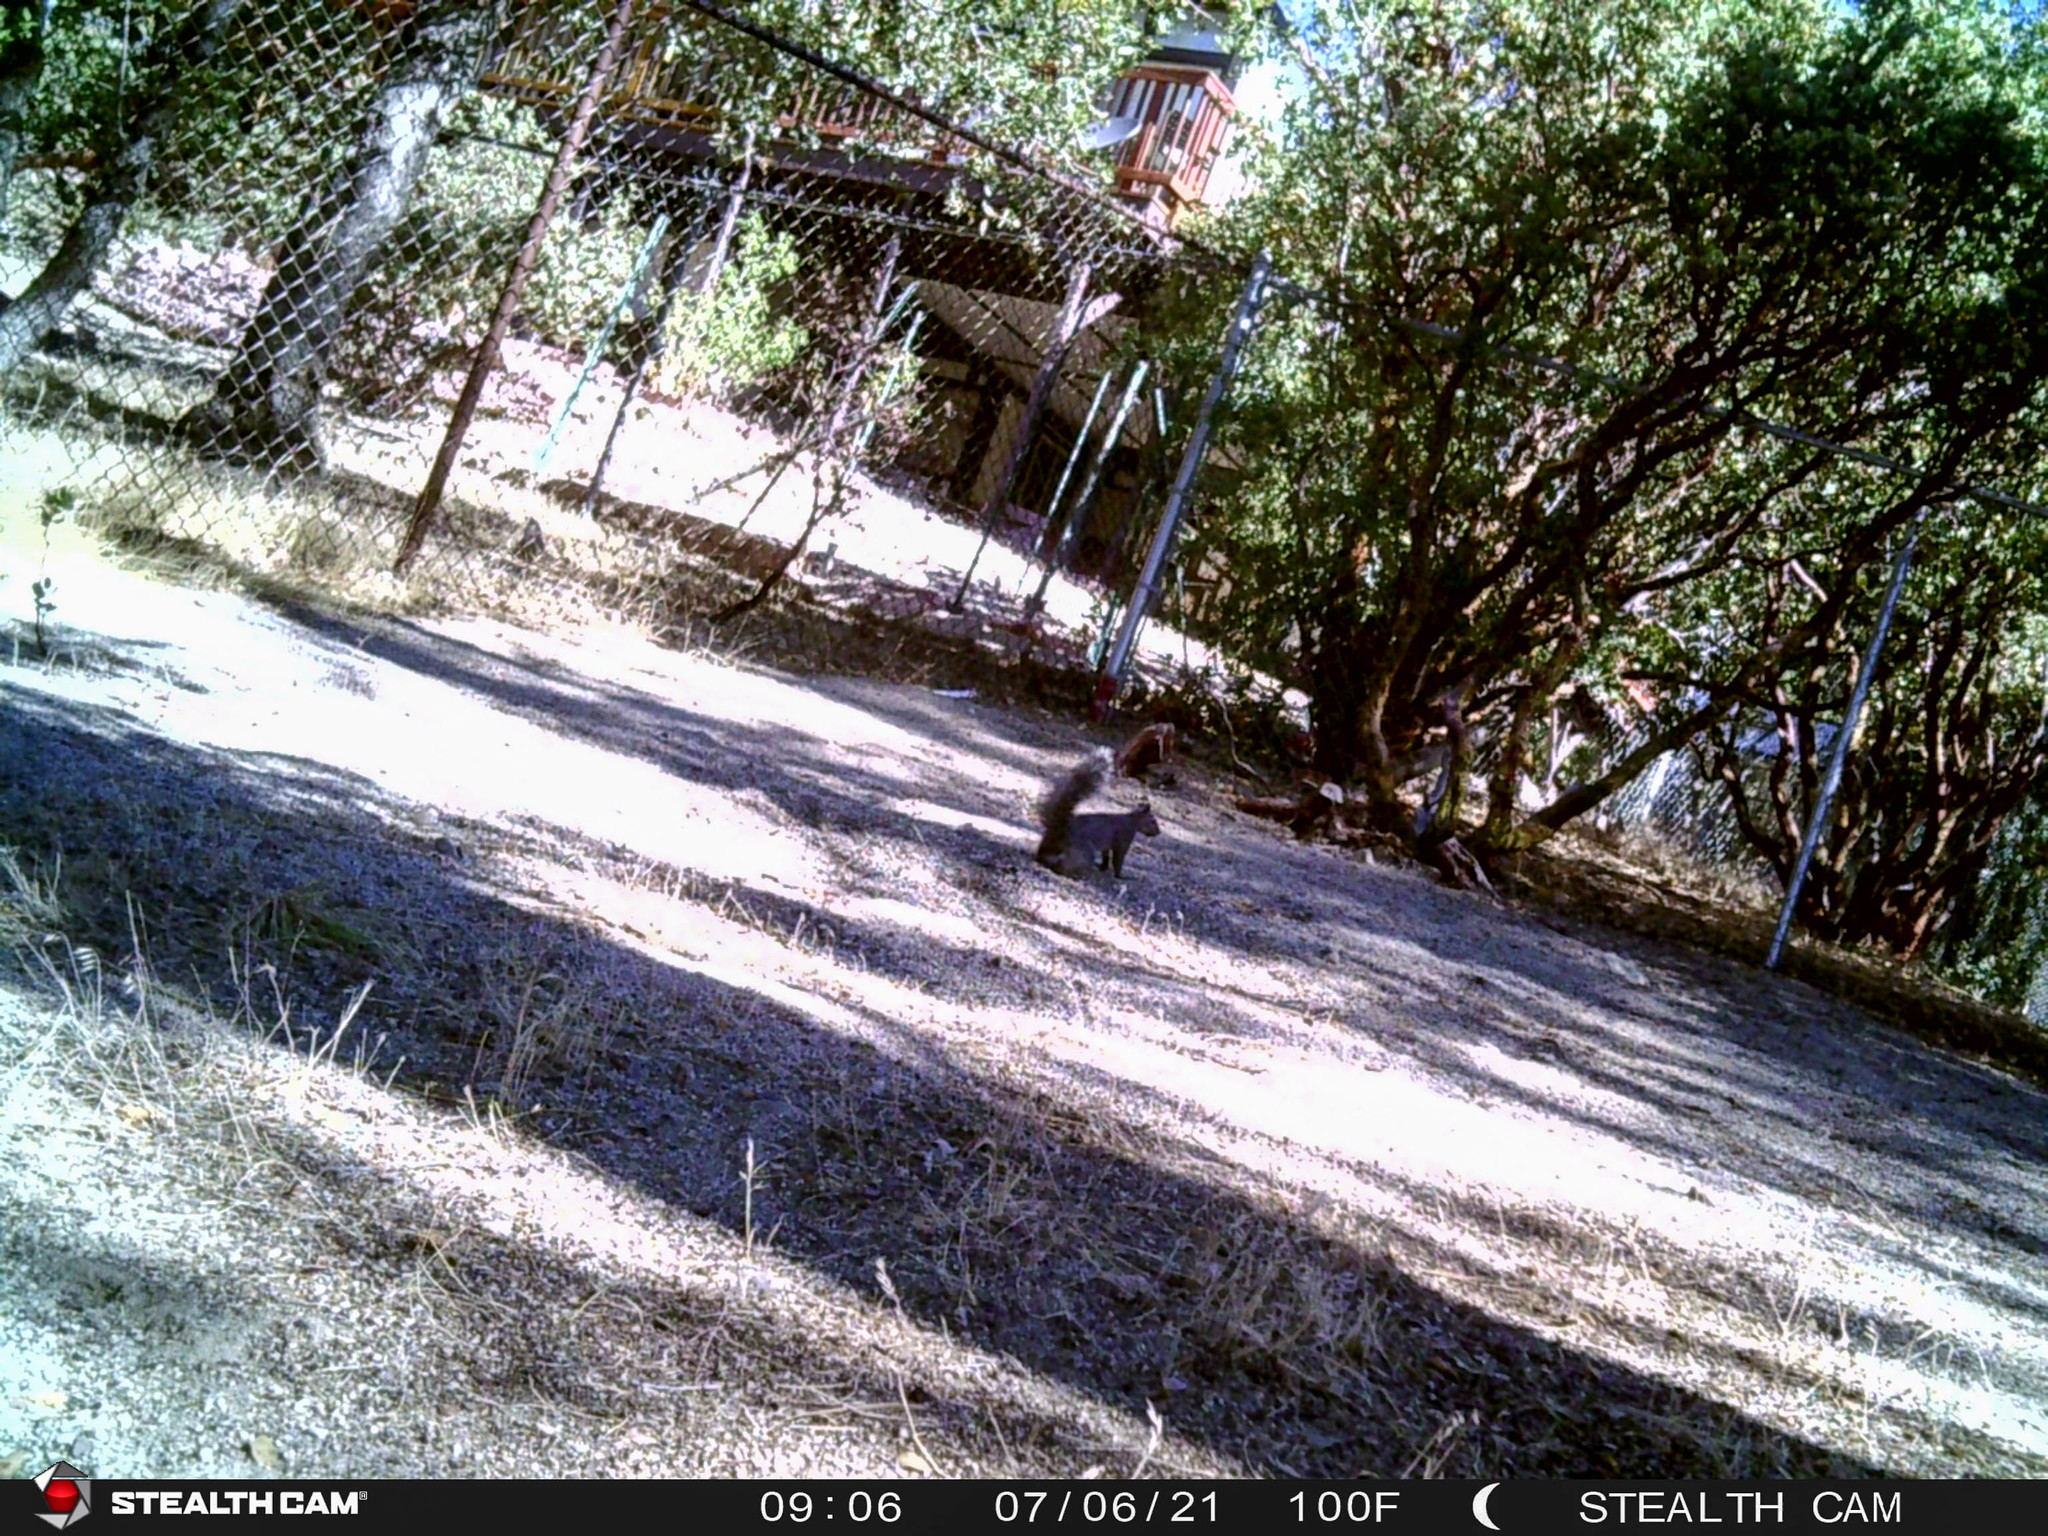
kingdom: Animalia
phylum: Chordata
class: Mammalia
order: Rodentia
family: Sciuridae
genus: Sciurus
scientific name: Sciurus griseus
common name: Western gray squirrel
